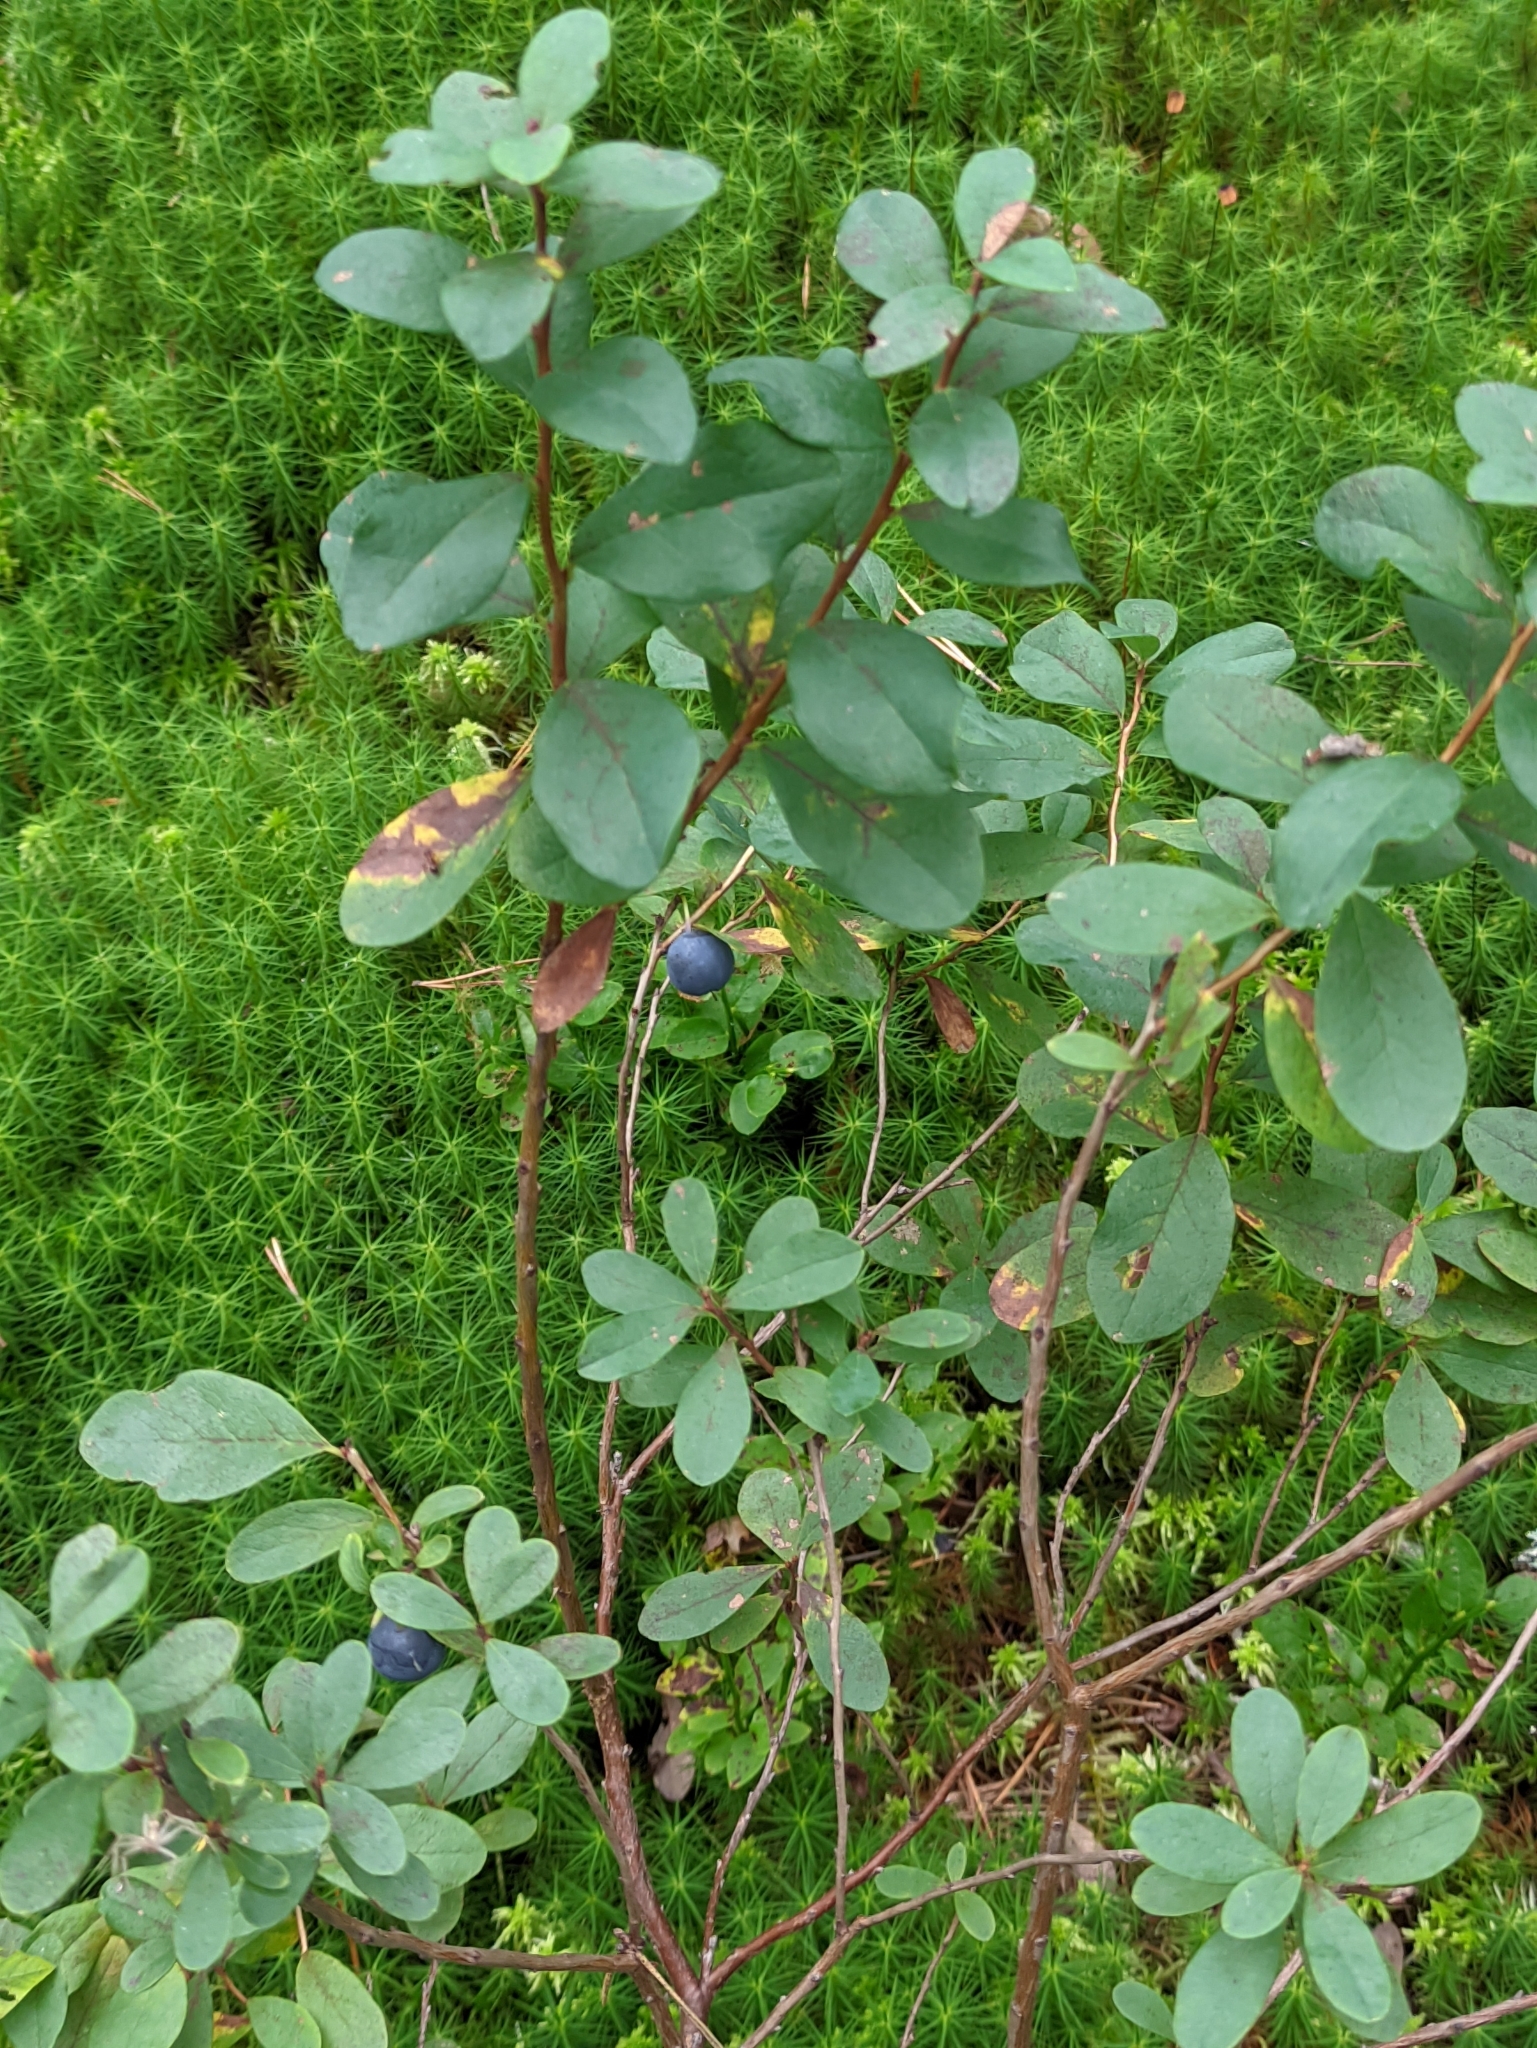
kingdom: Plantae
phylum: Tracheophyta
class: Magnoliopsida
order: Ericales
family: Ericaceae
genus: Vaccinium
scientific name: Vaccinium uliginosum
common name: Bog bilberry
